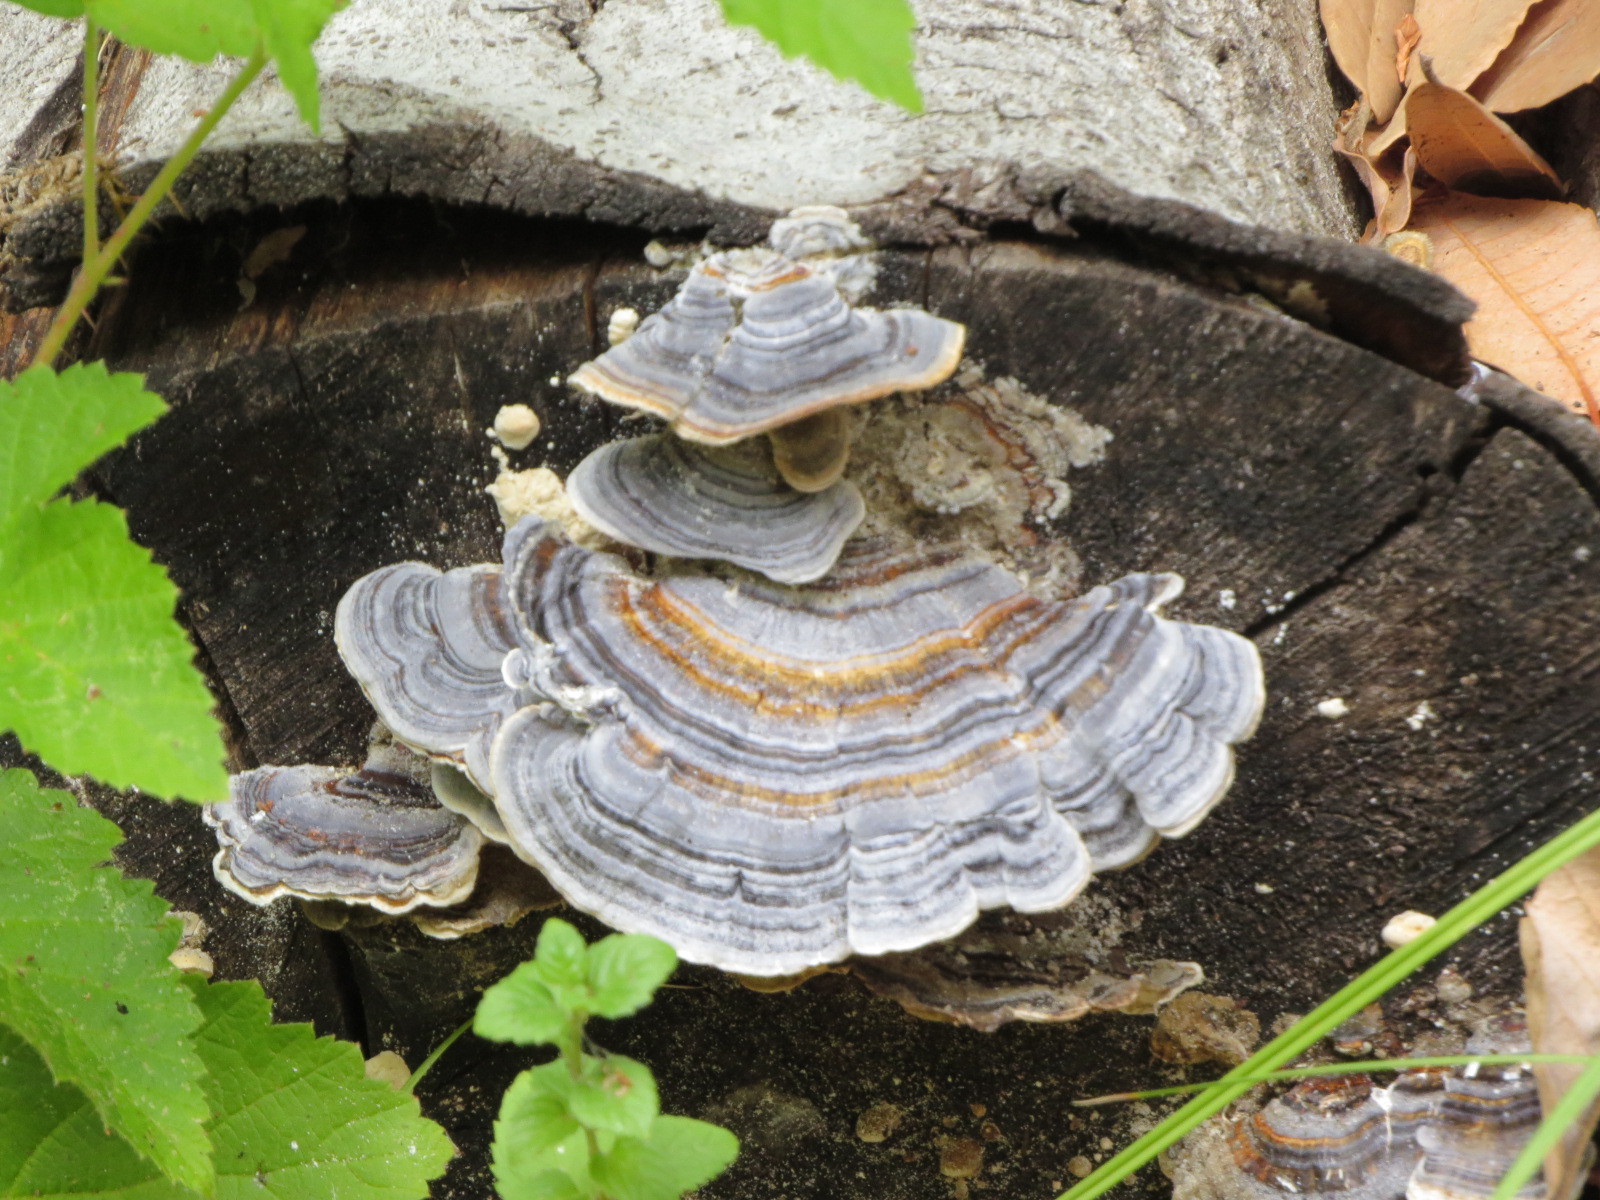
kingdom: Fungi
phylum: Basidiomycota
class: Agaricomycetes
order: Polyporales
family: Polyporaceae
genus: Trametes
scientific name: Trametes versicolor
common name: Turkeytail
